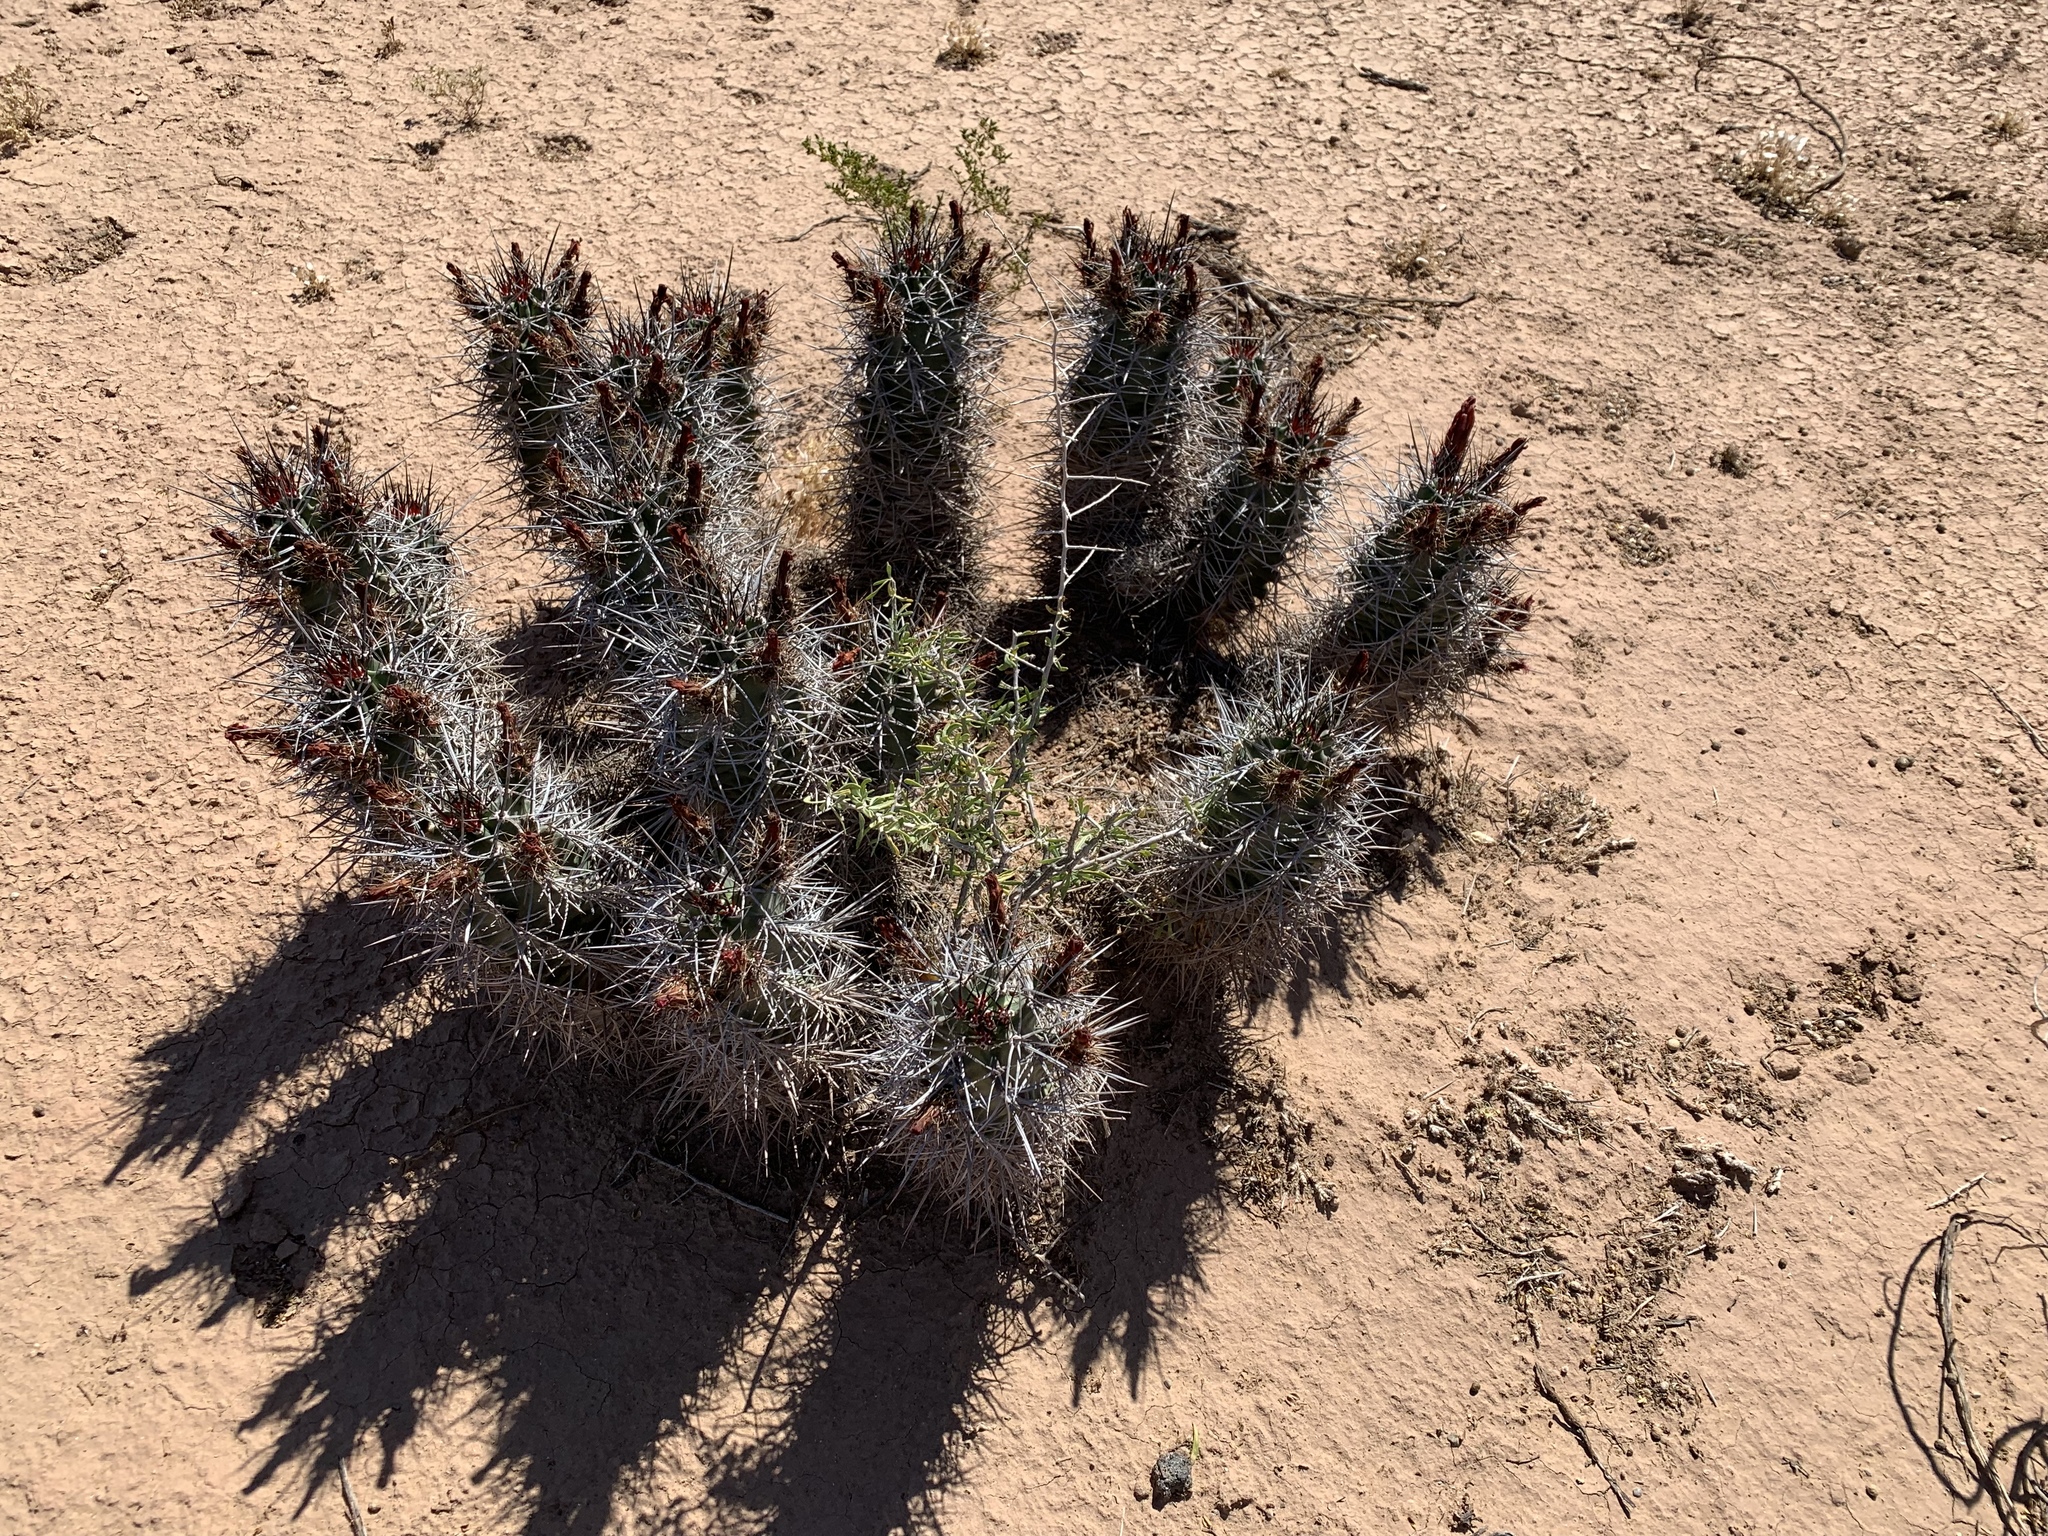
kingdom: Plantae
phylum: Tracheophyta
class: Magnoliopsida
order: Caryophyllales
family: Cactaceae
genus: Echinocereus
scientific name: Echinocereus triglochidiatus
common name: Claretcup hedgehog
